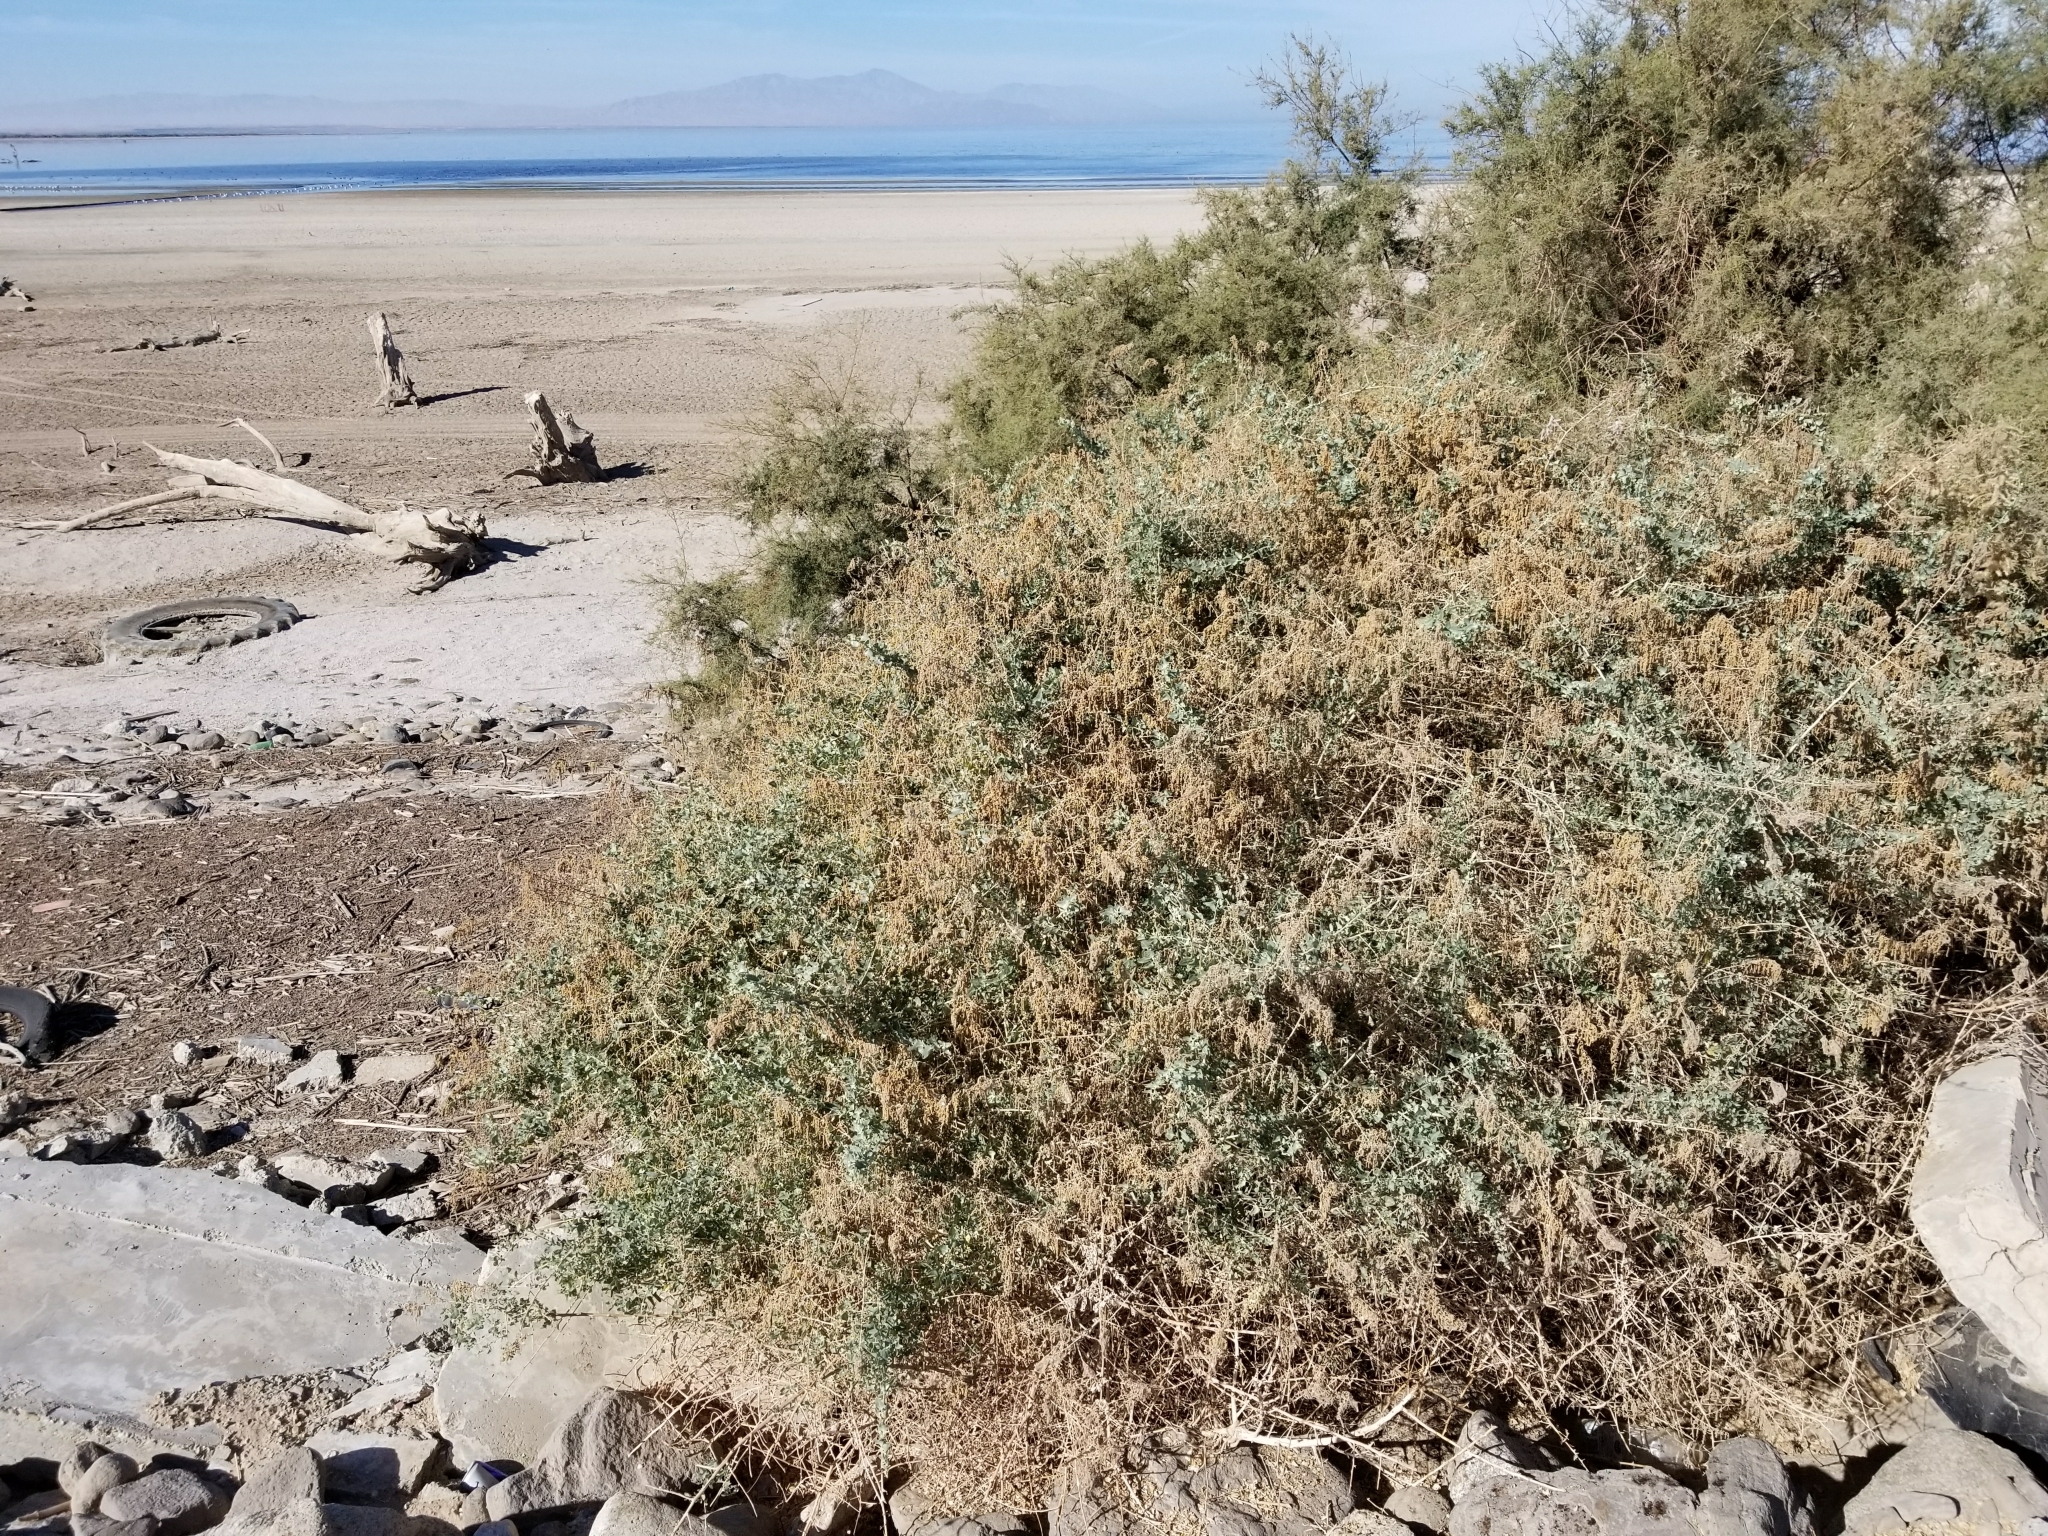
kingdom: Plantae
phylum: Tracheophyta
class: Magnoliopsida
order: Caryophyllales
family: Amaranthaceae
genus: Atriplex
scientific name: Atriplex lentiformis
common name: Big saltbush
